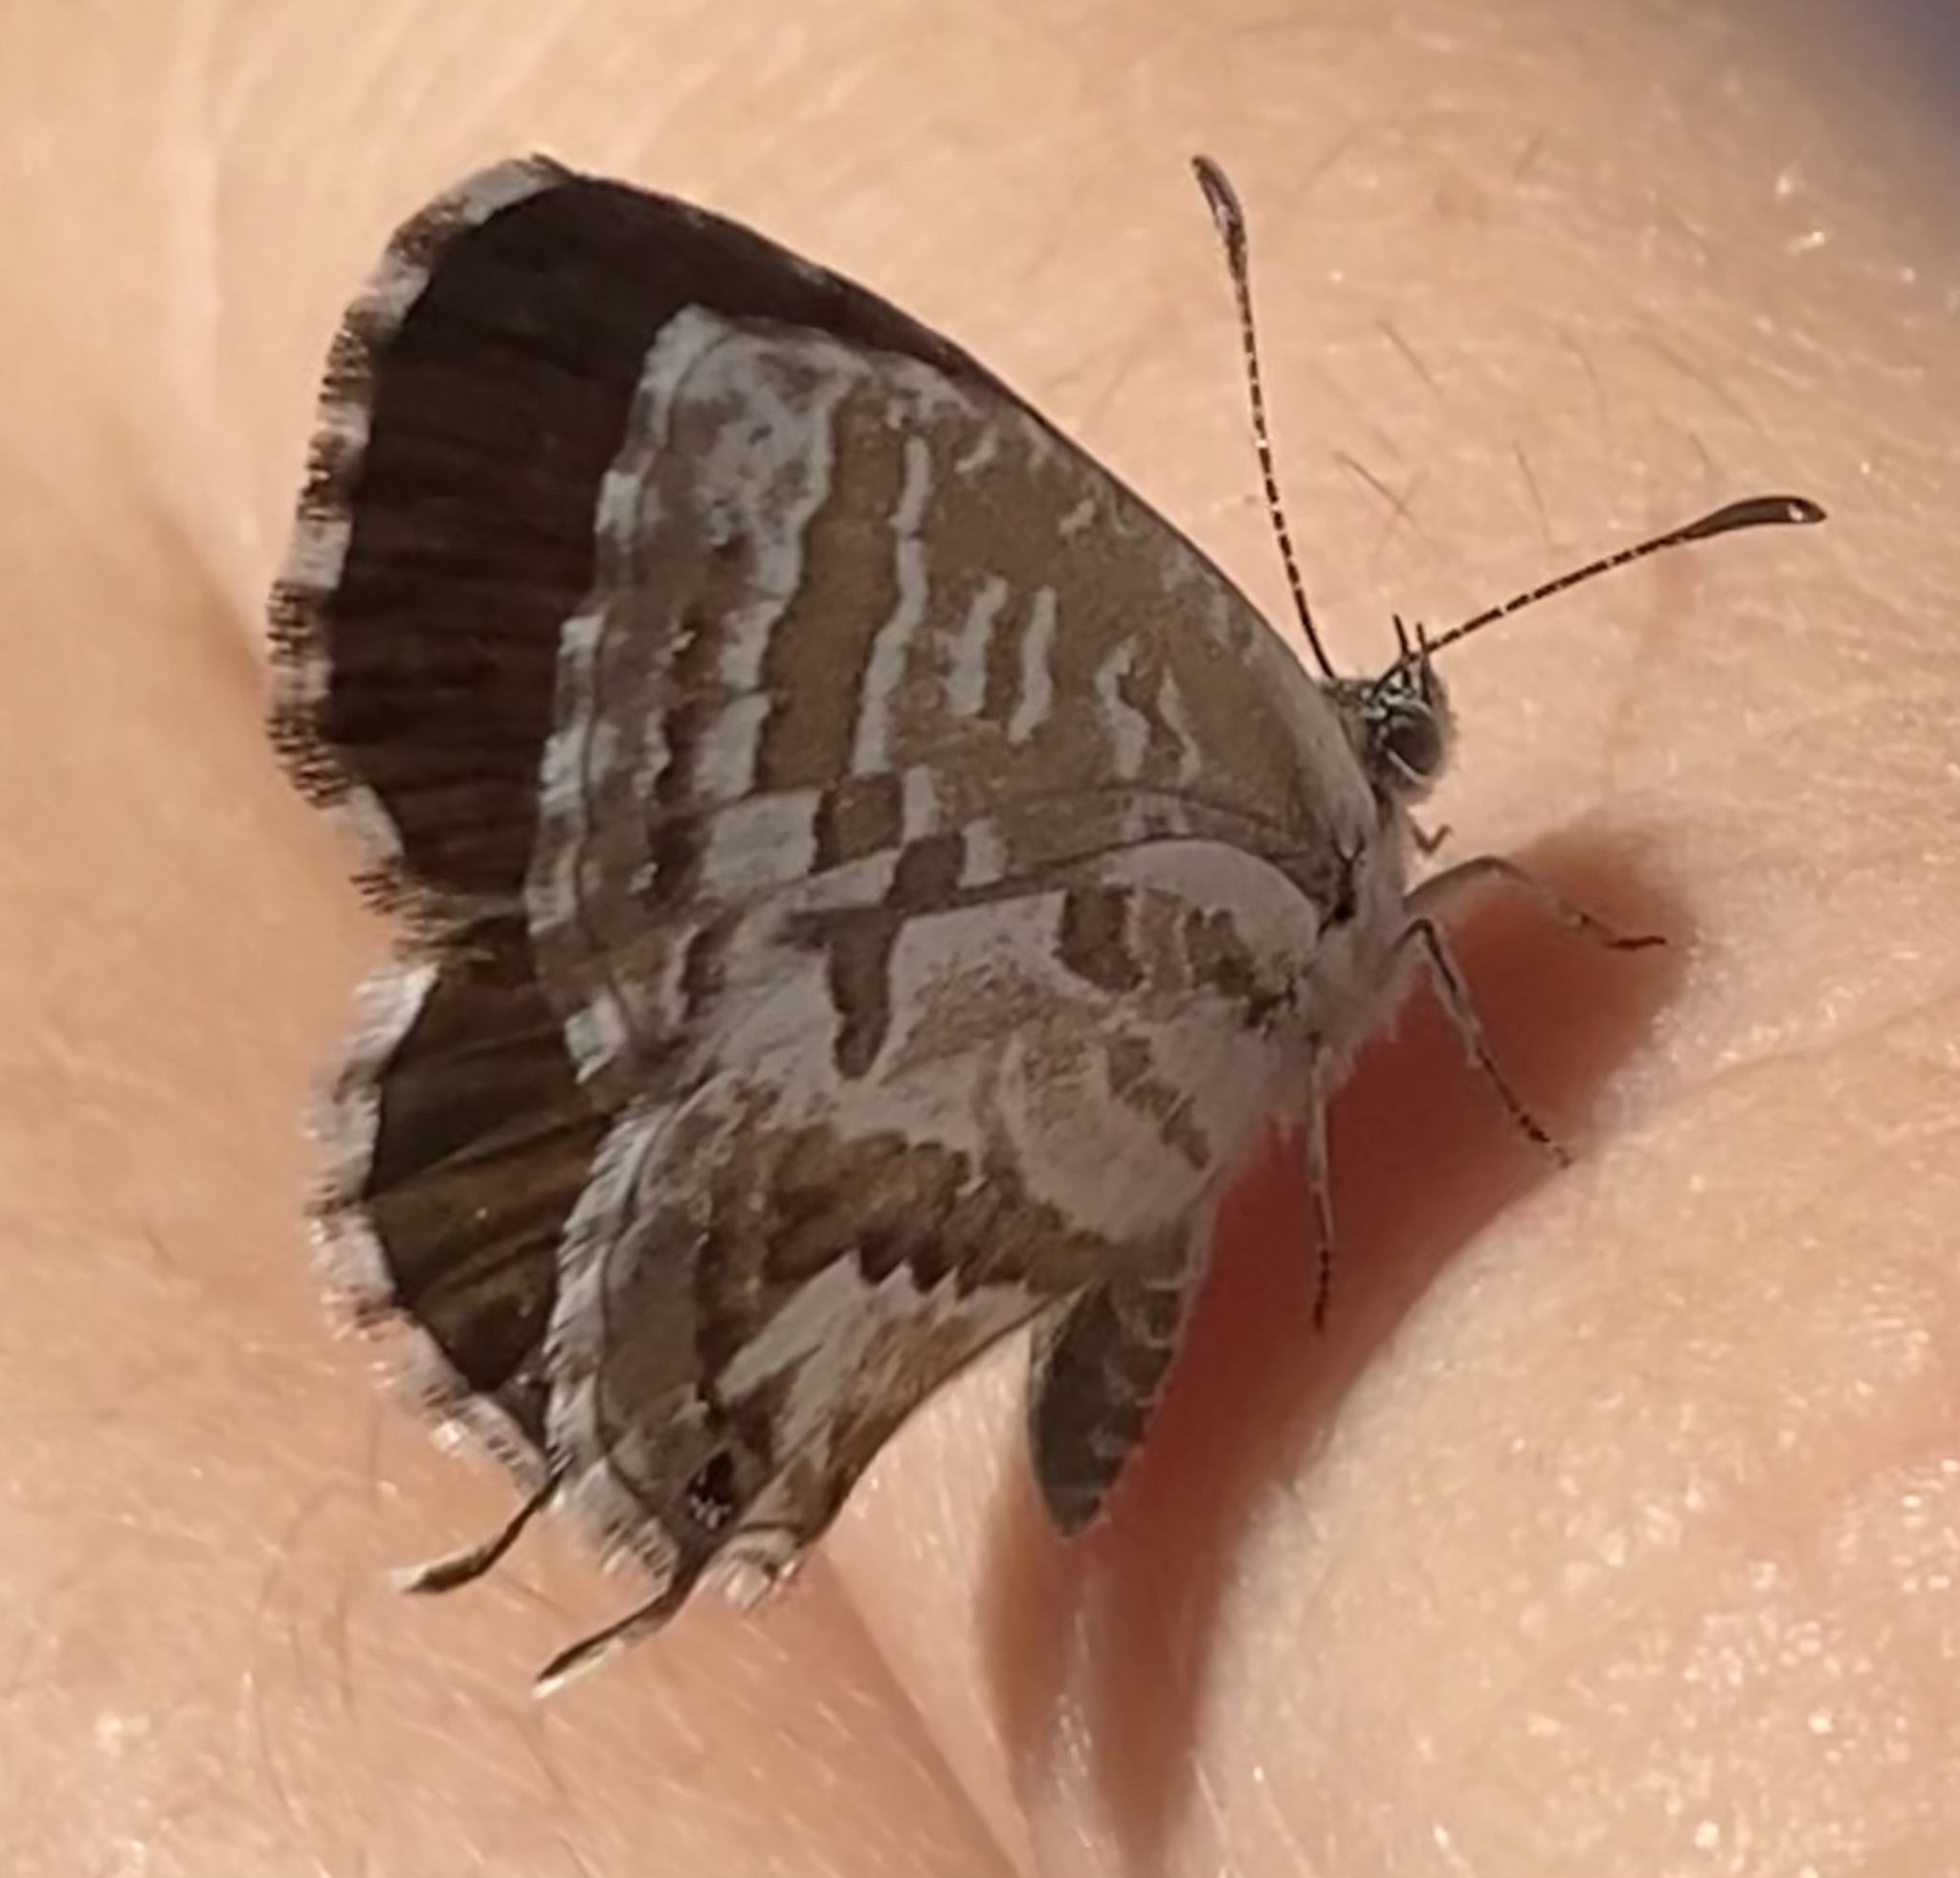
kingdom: Animalia
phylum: Arthropoda
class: Insecta
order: Lepidoptera
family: Lycaenidae
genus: Cacyreus
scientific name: Cacyreus marshalli
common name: Geranium bronze
